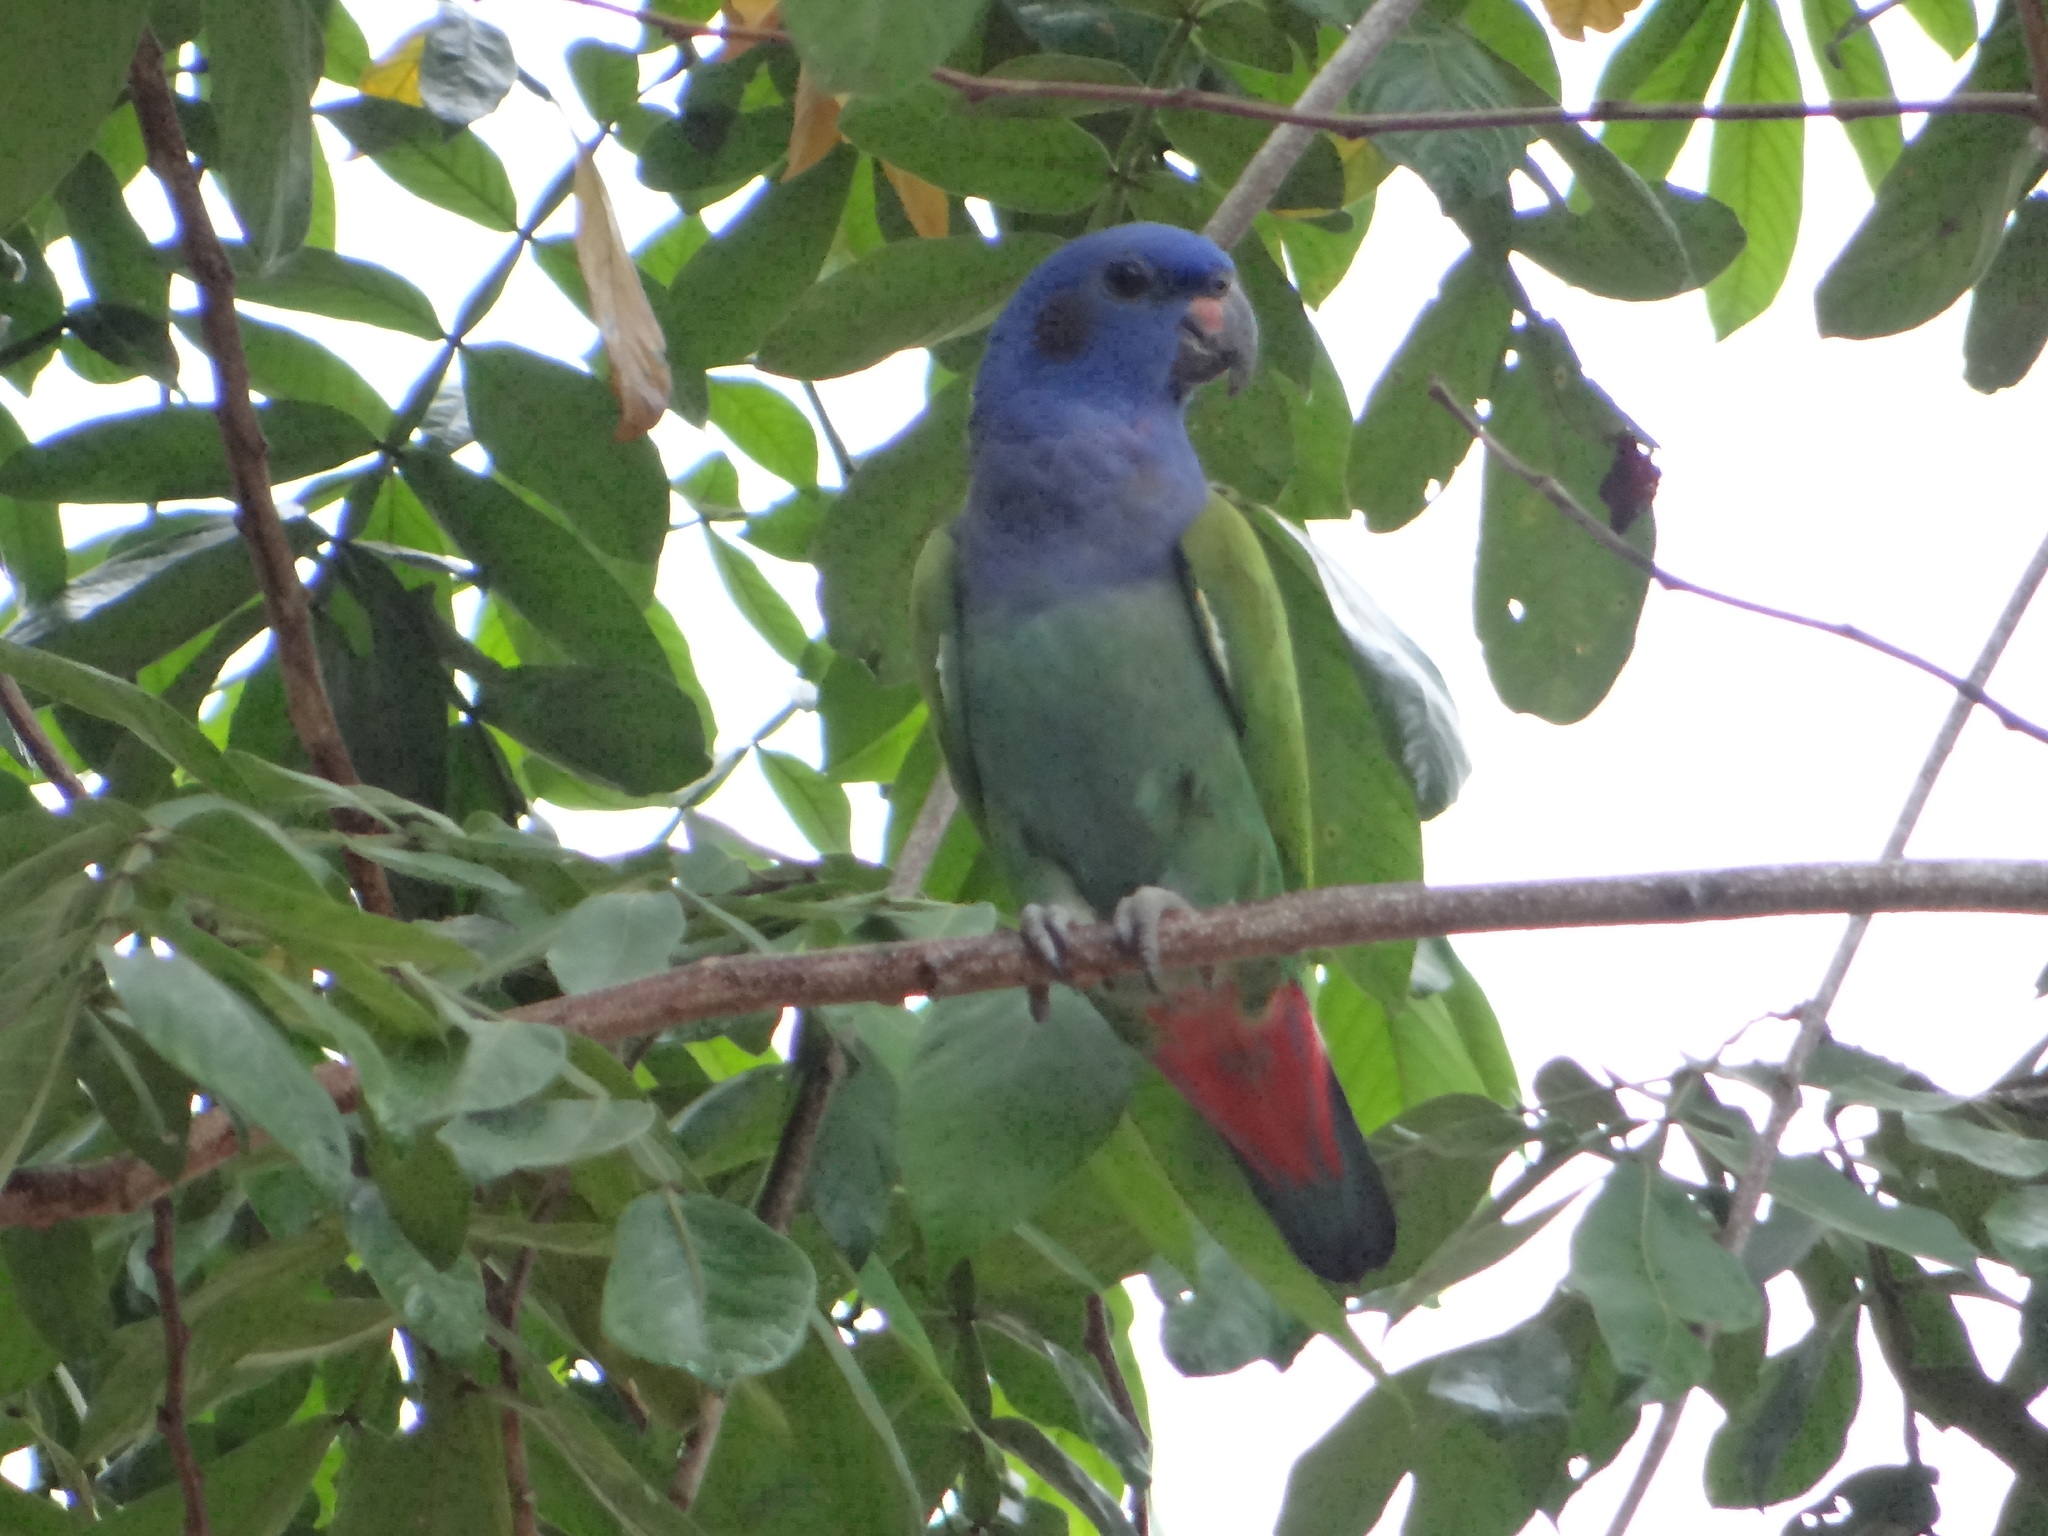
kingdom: Animalia
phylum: Chordata
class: Aves
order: Psittaciformes
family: Psittacidae
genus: Pionus
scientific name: Pionus menstruus
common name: Blue-headed parrot
